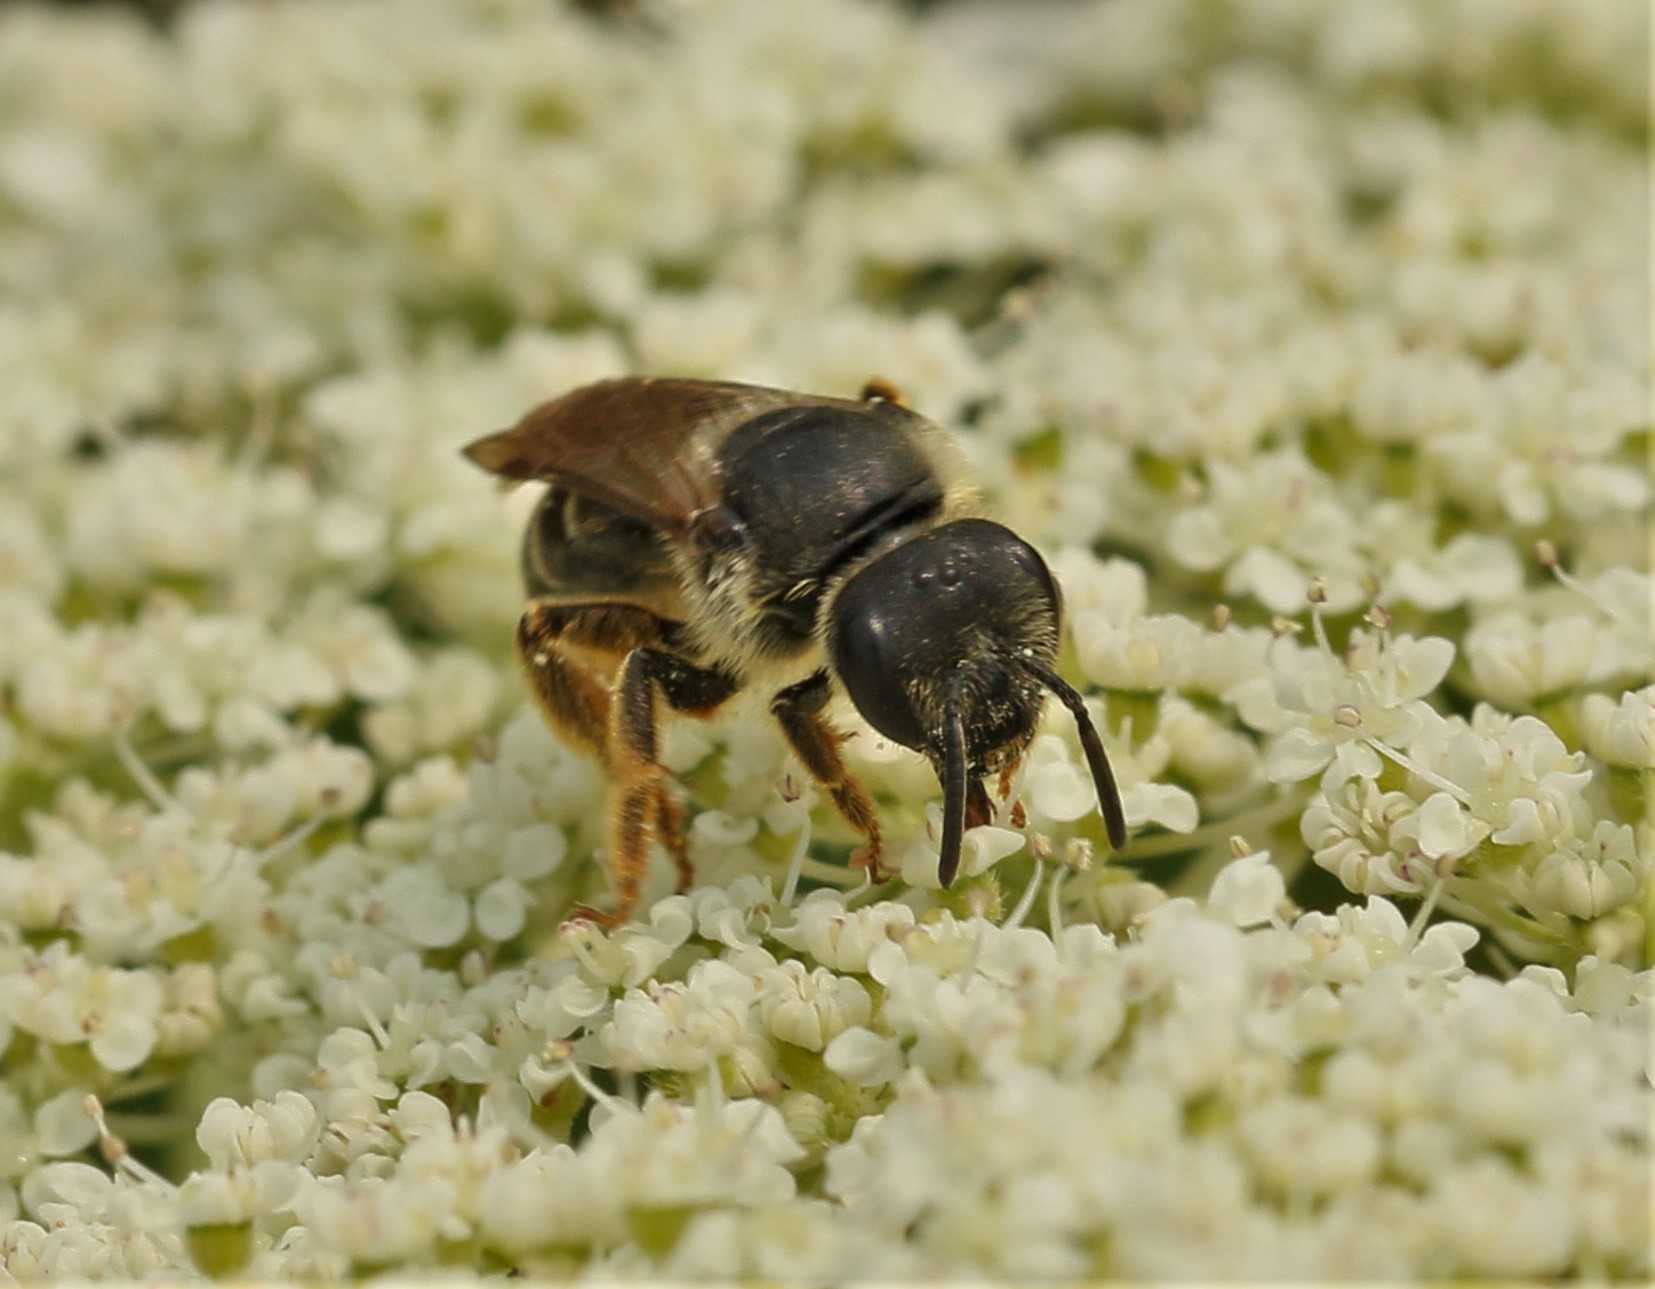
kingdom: Animalia
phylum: Arthropoda
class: Insecta
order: Hymenoptera
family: Halictidae
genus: Halictus
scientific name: Halictus rubicundus
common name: Orange-legged furrow bee
